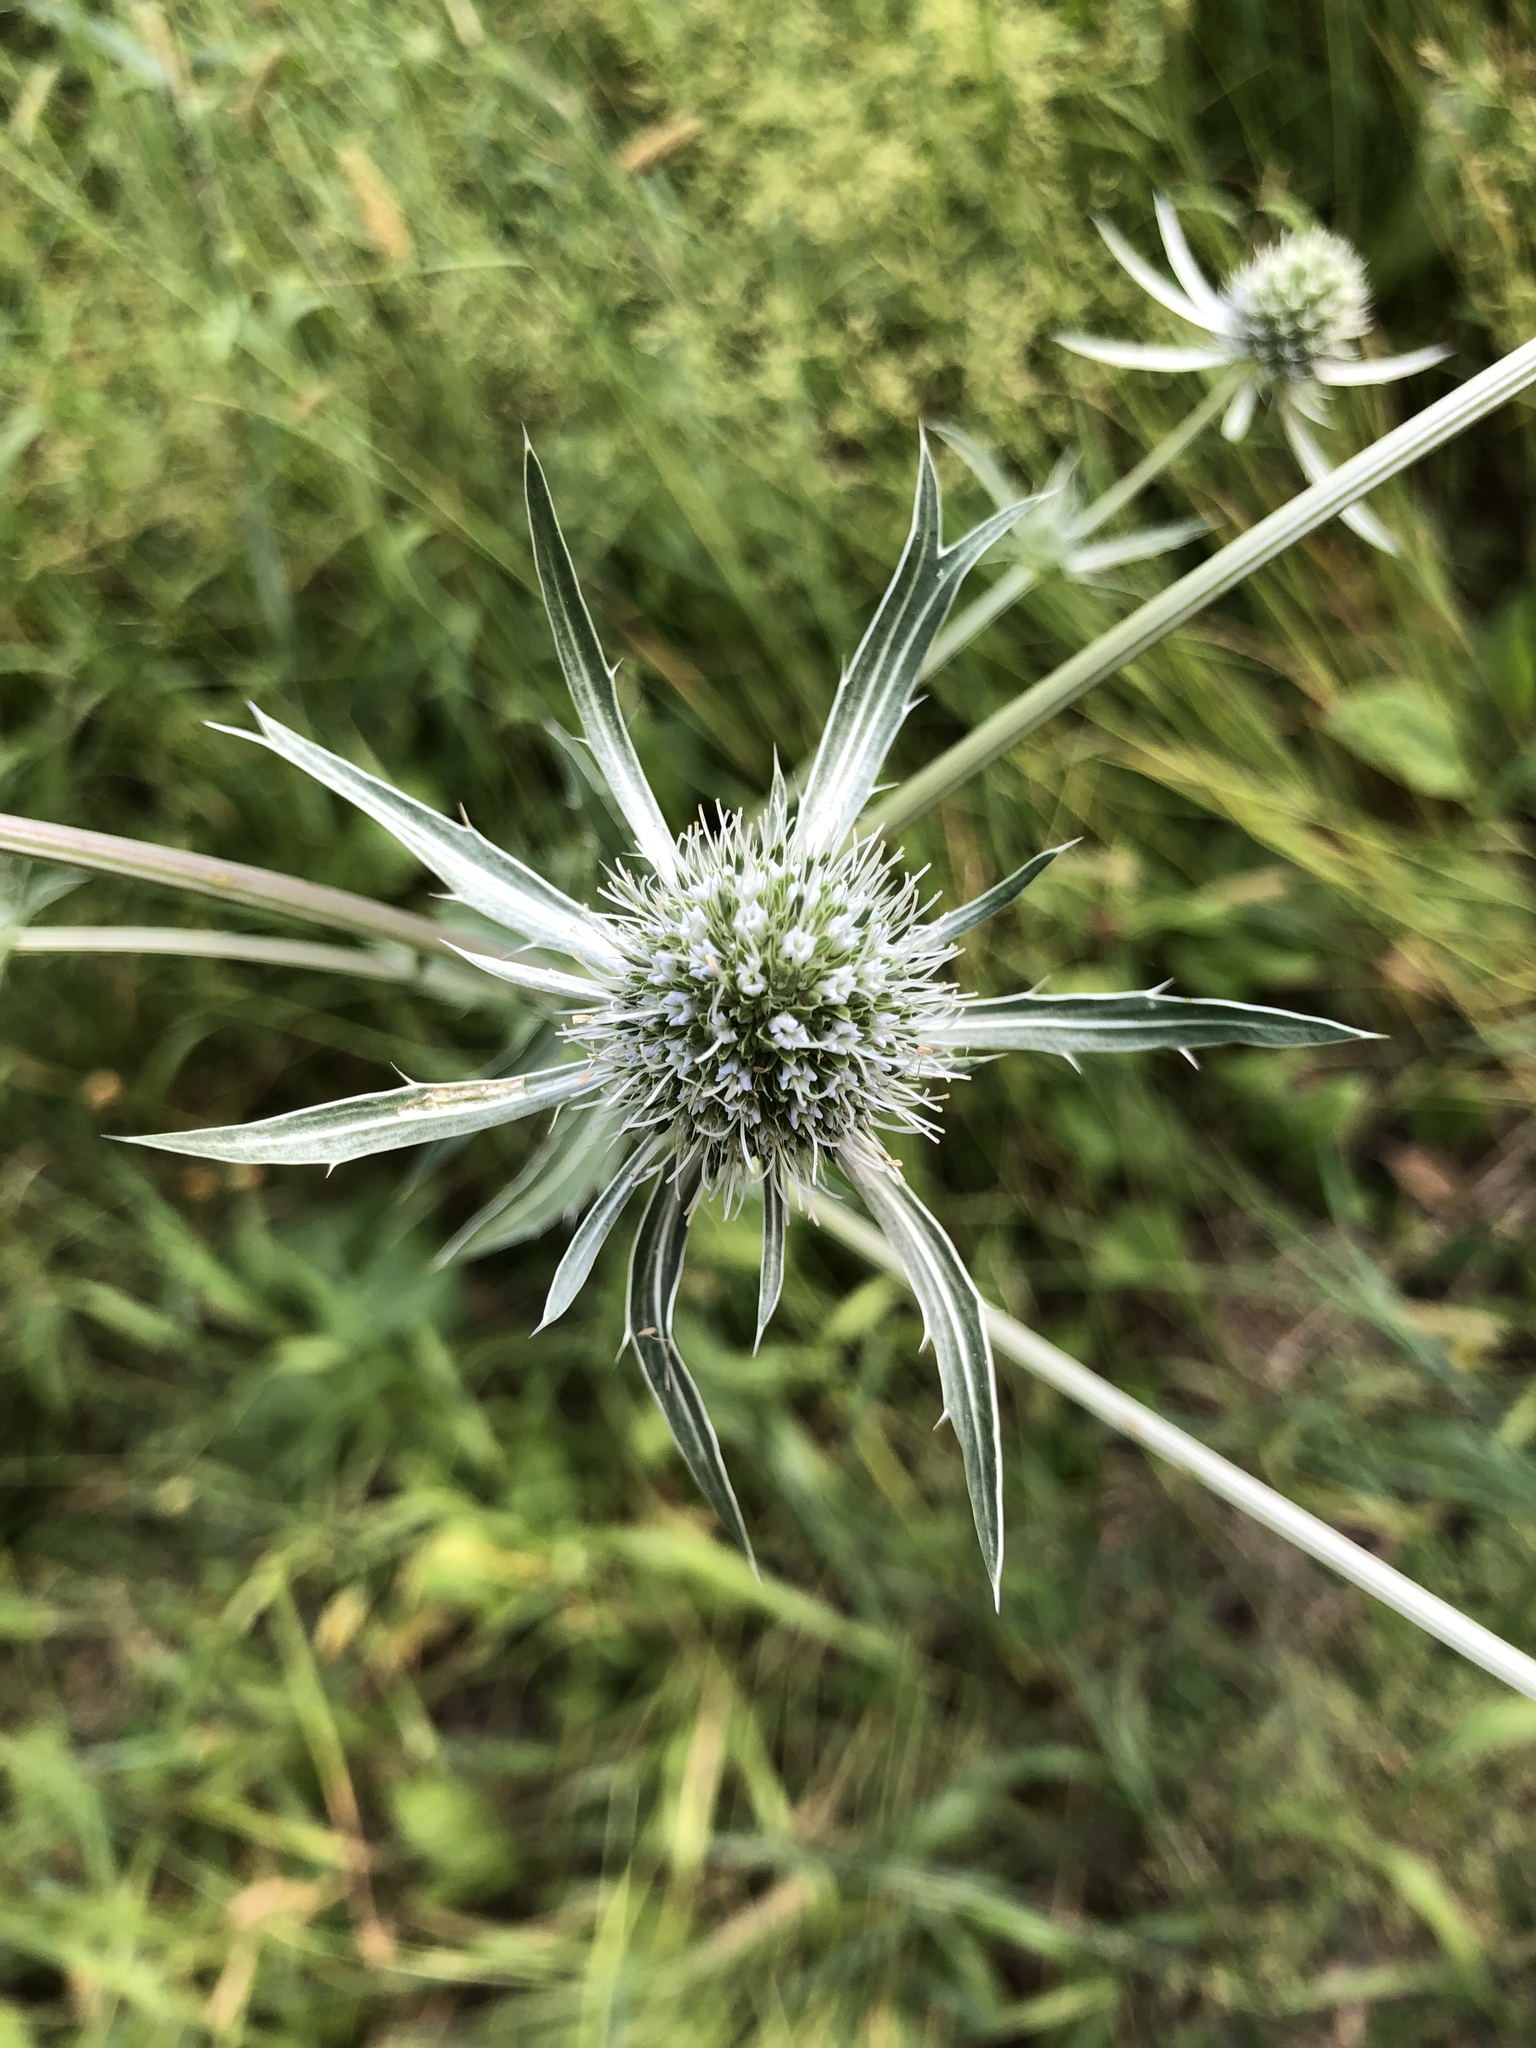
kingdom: Plantae
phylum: Tracheophyta
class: Magnoliopsida
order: Apiales
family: Apiaceae
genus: Eryngium
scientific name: Eryngium planum
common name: Blue eryngo
